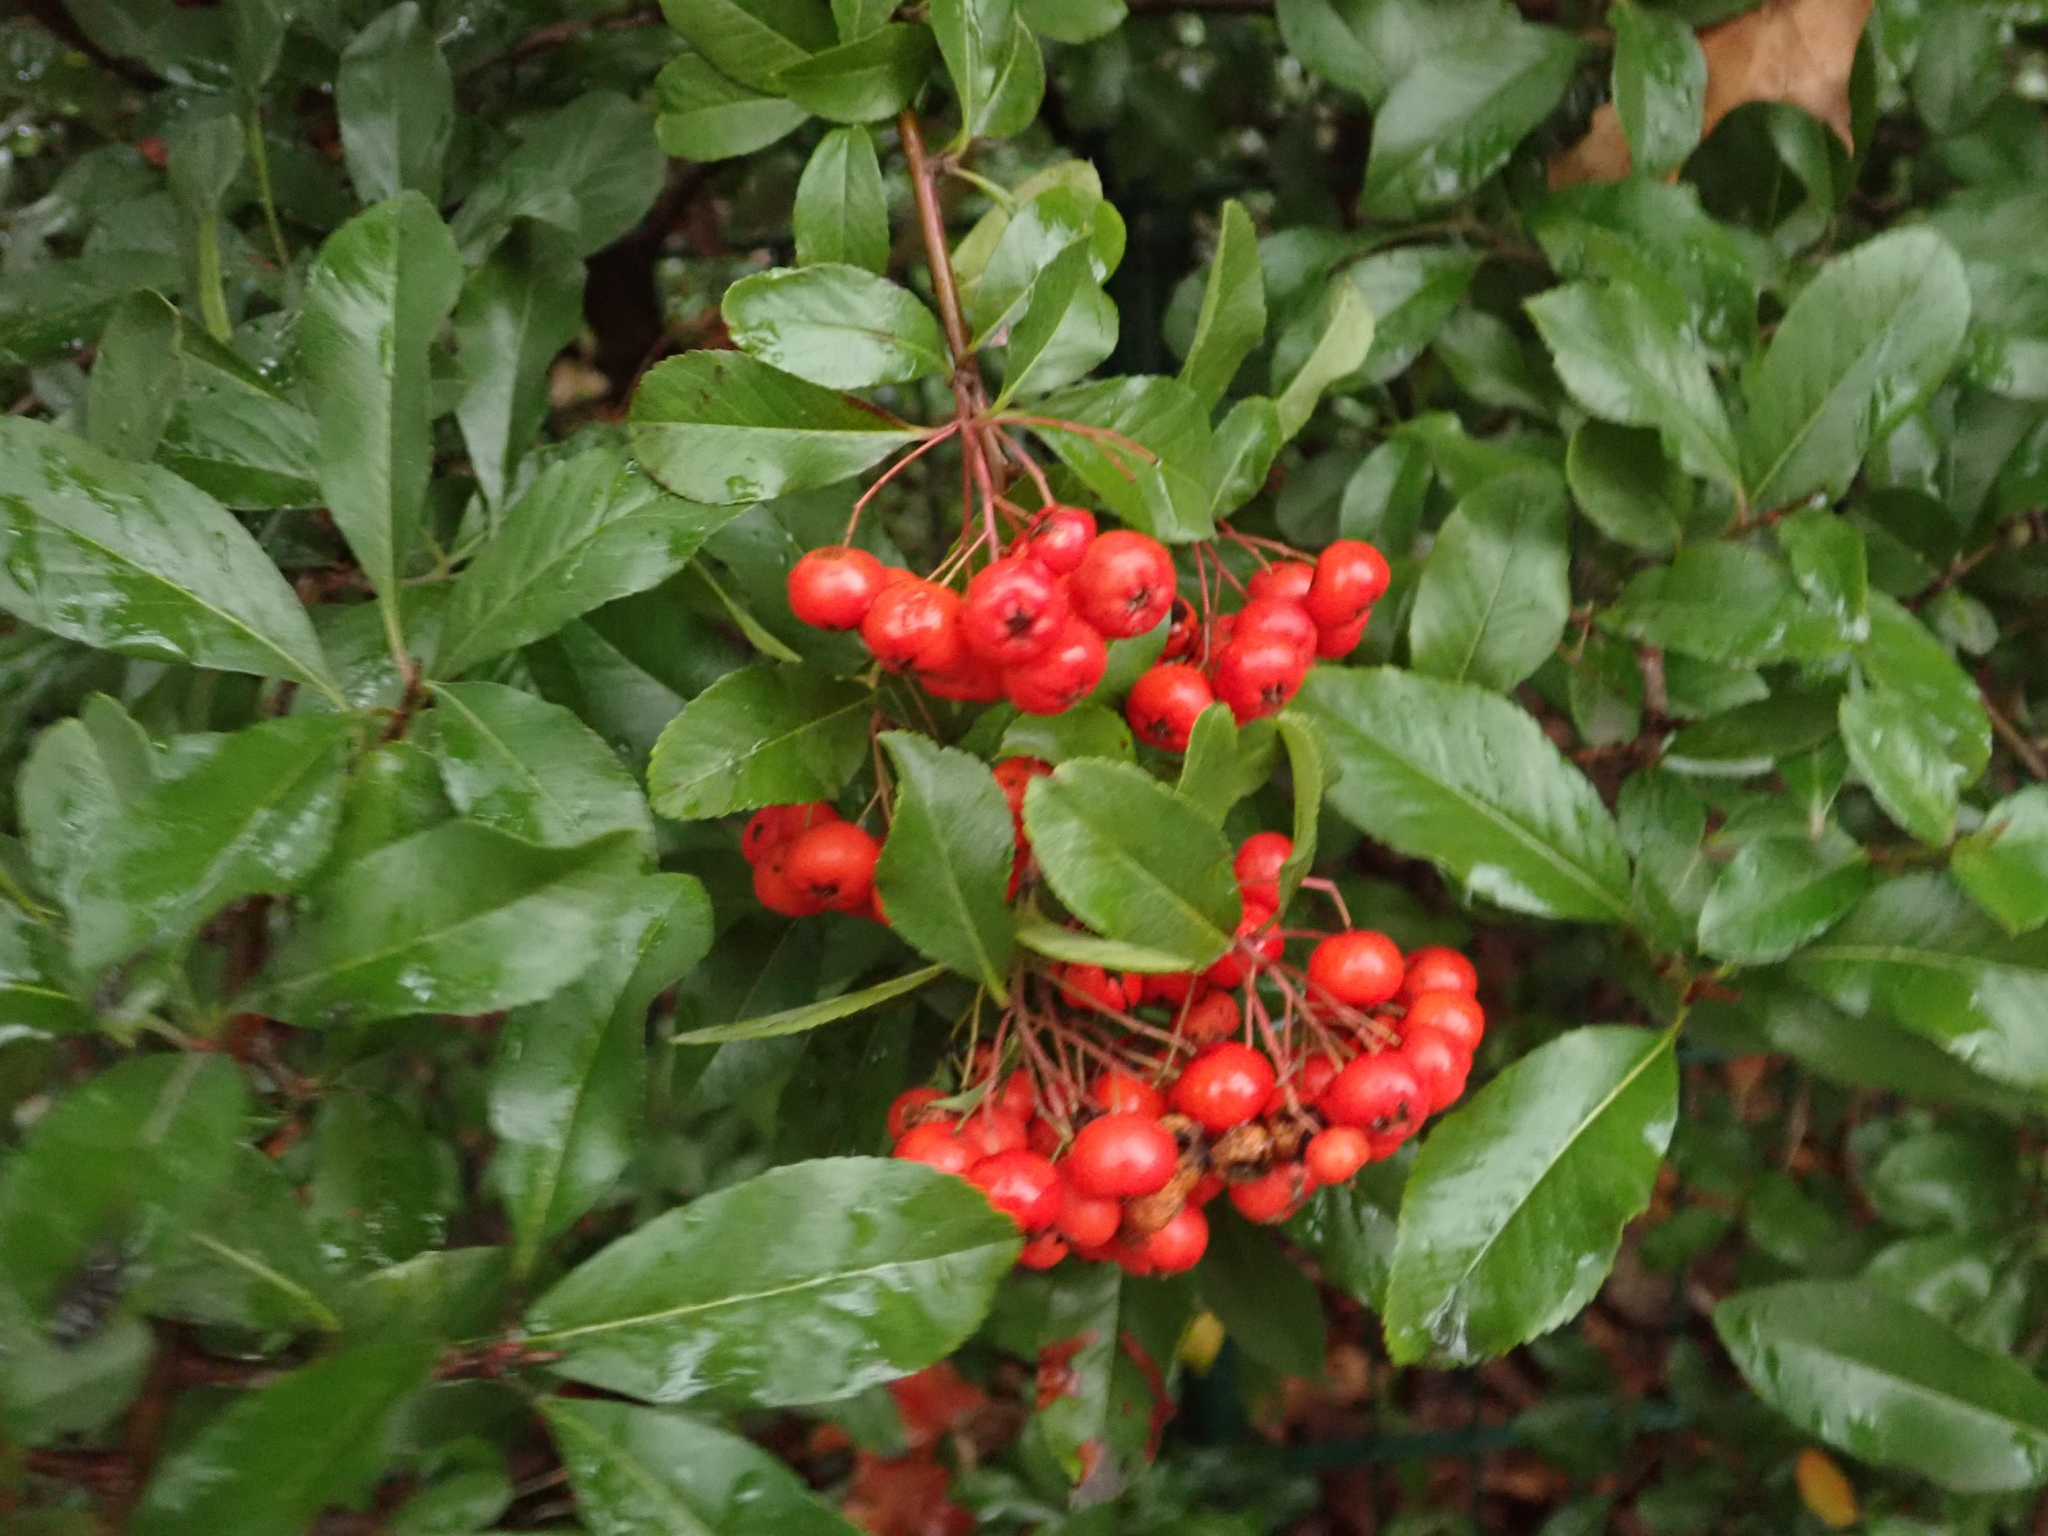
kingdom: Plantae
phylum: Tracheophyta
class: Magnoliopsida
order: Rosales
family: Rosaceae
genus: Pyracantha
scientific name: Pyracantha coccinea
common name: Firethorn
